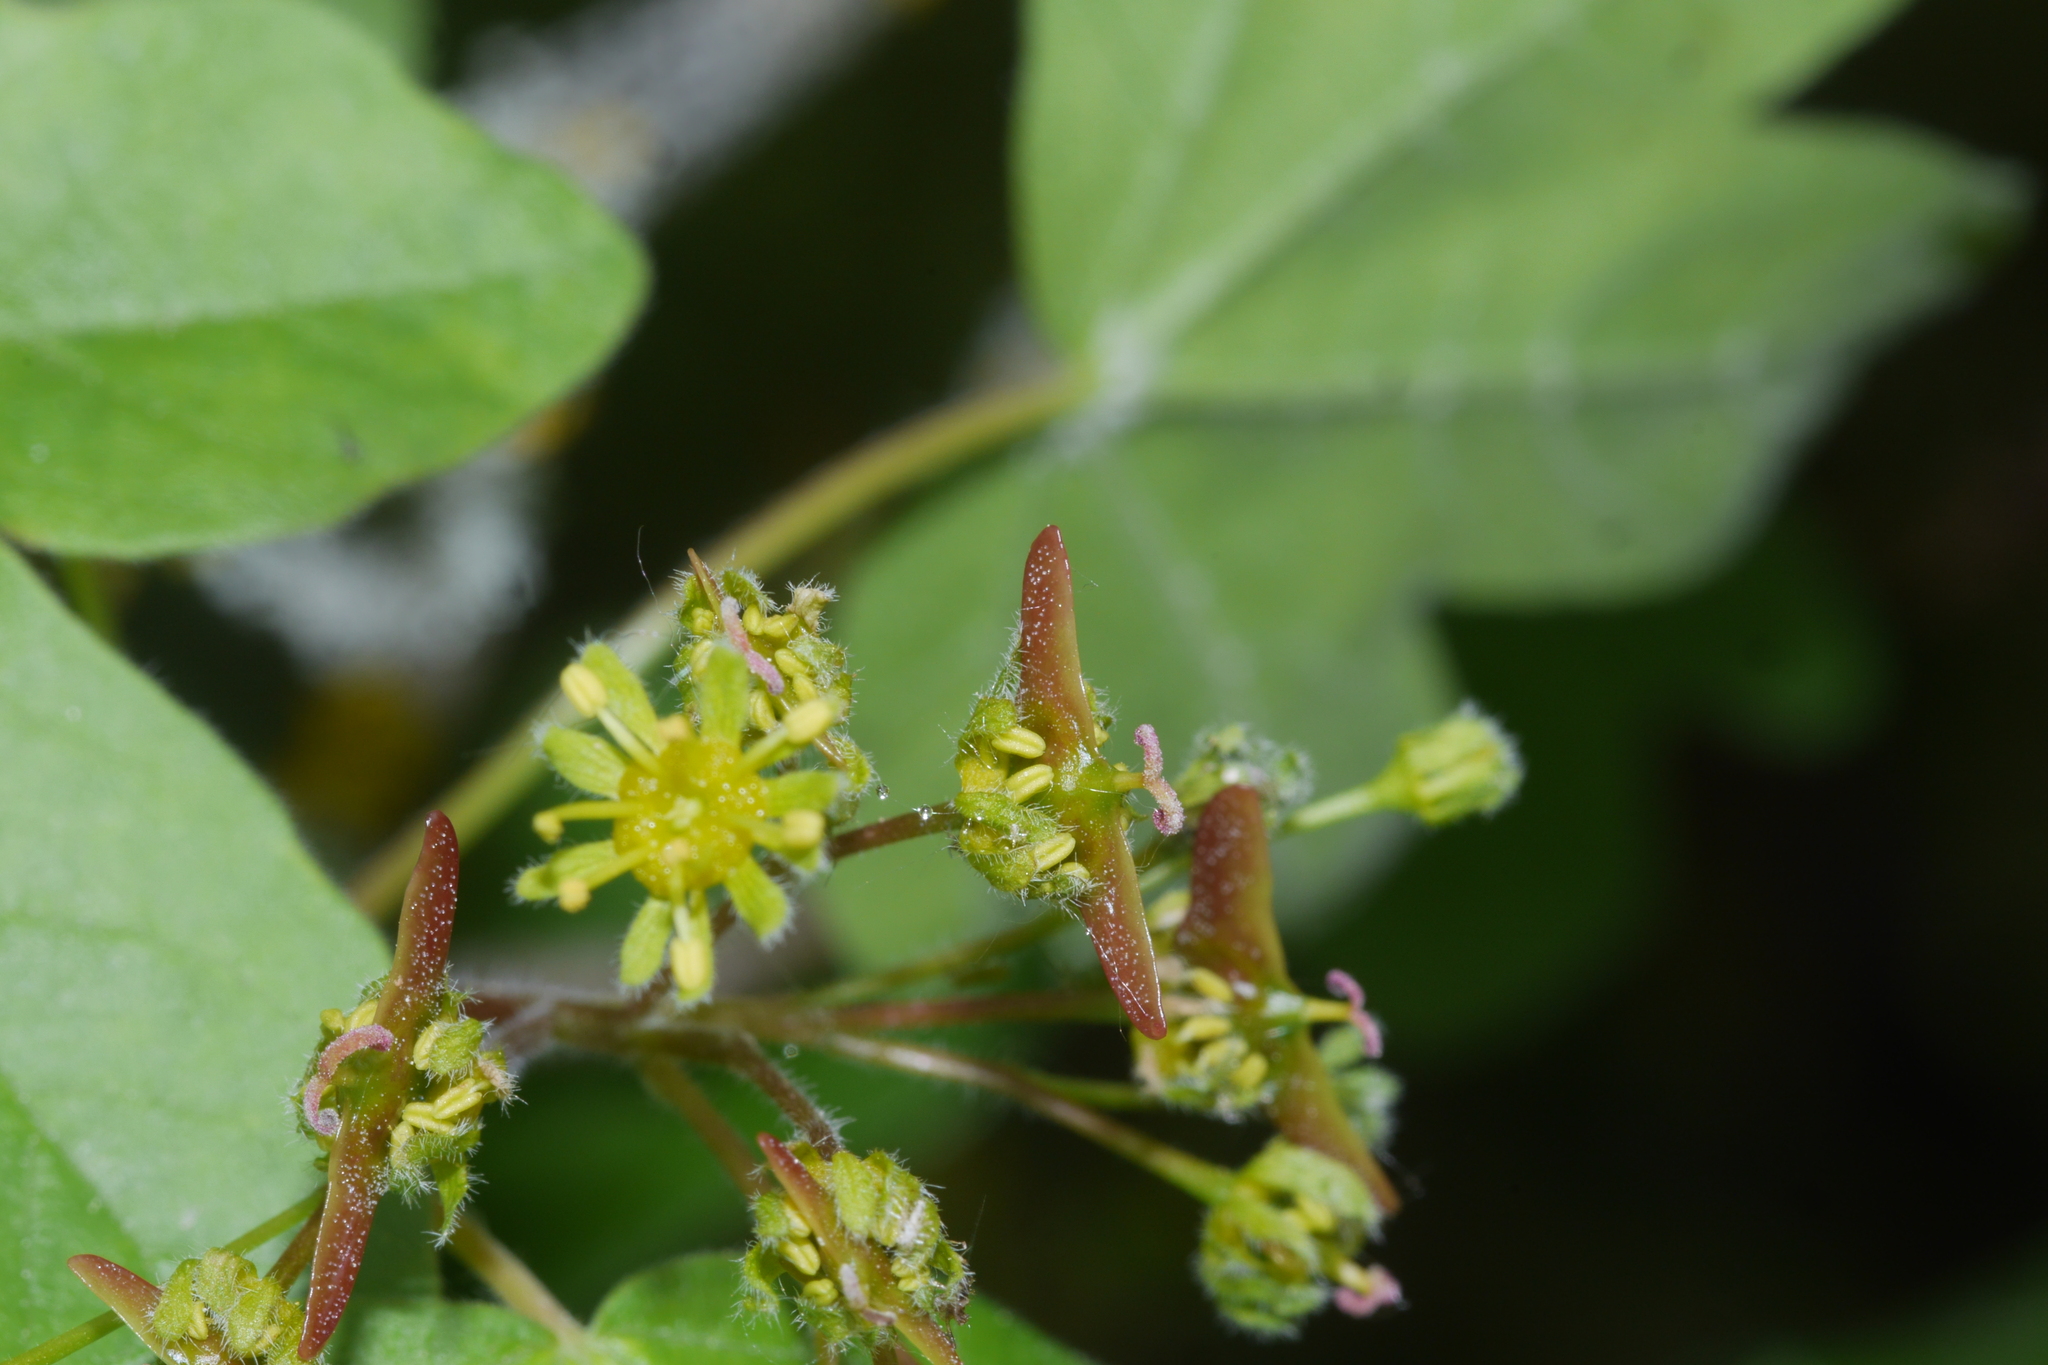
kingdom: Plantae
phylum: Tracheophyta
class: Magnoliopsida
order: Sapindales
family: Sapindaceae
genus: Acer
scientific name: Acer campestre
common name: Field maple
